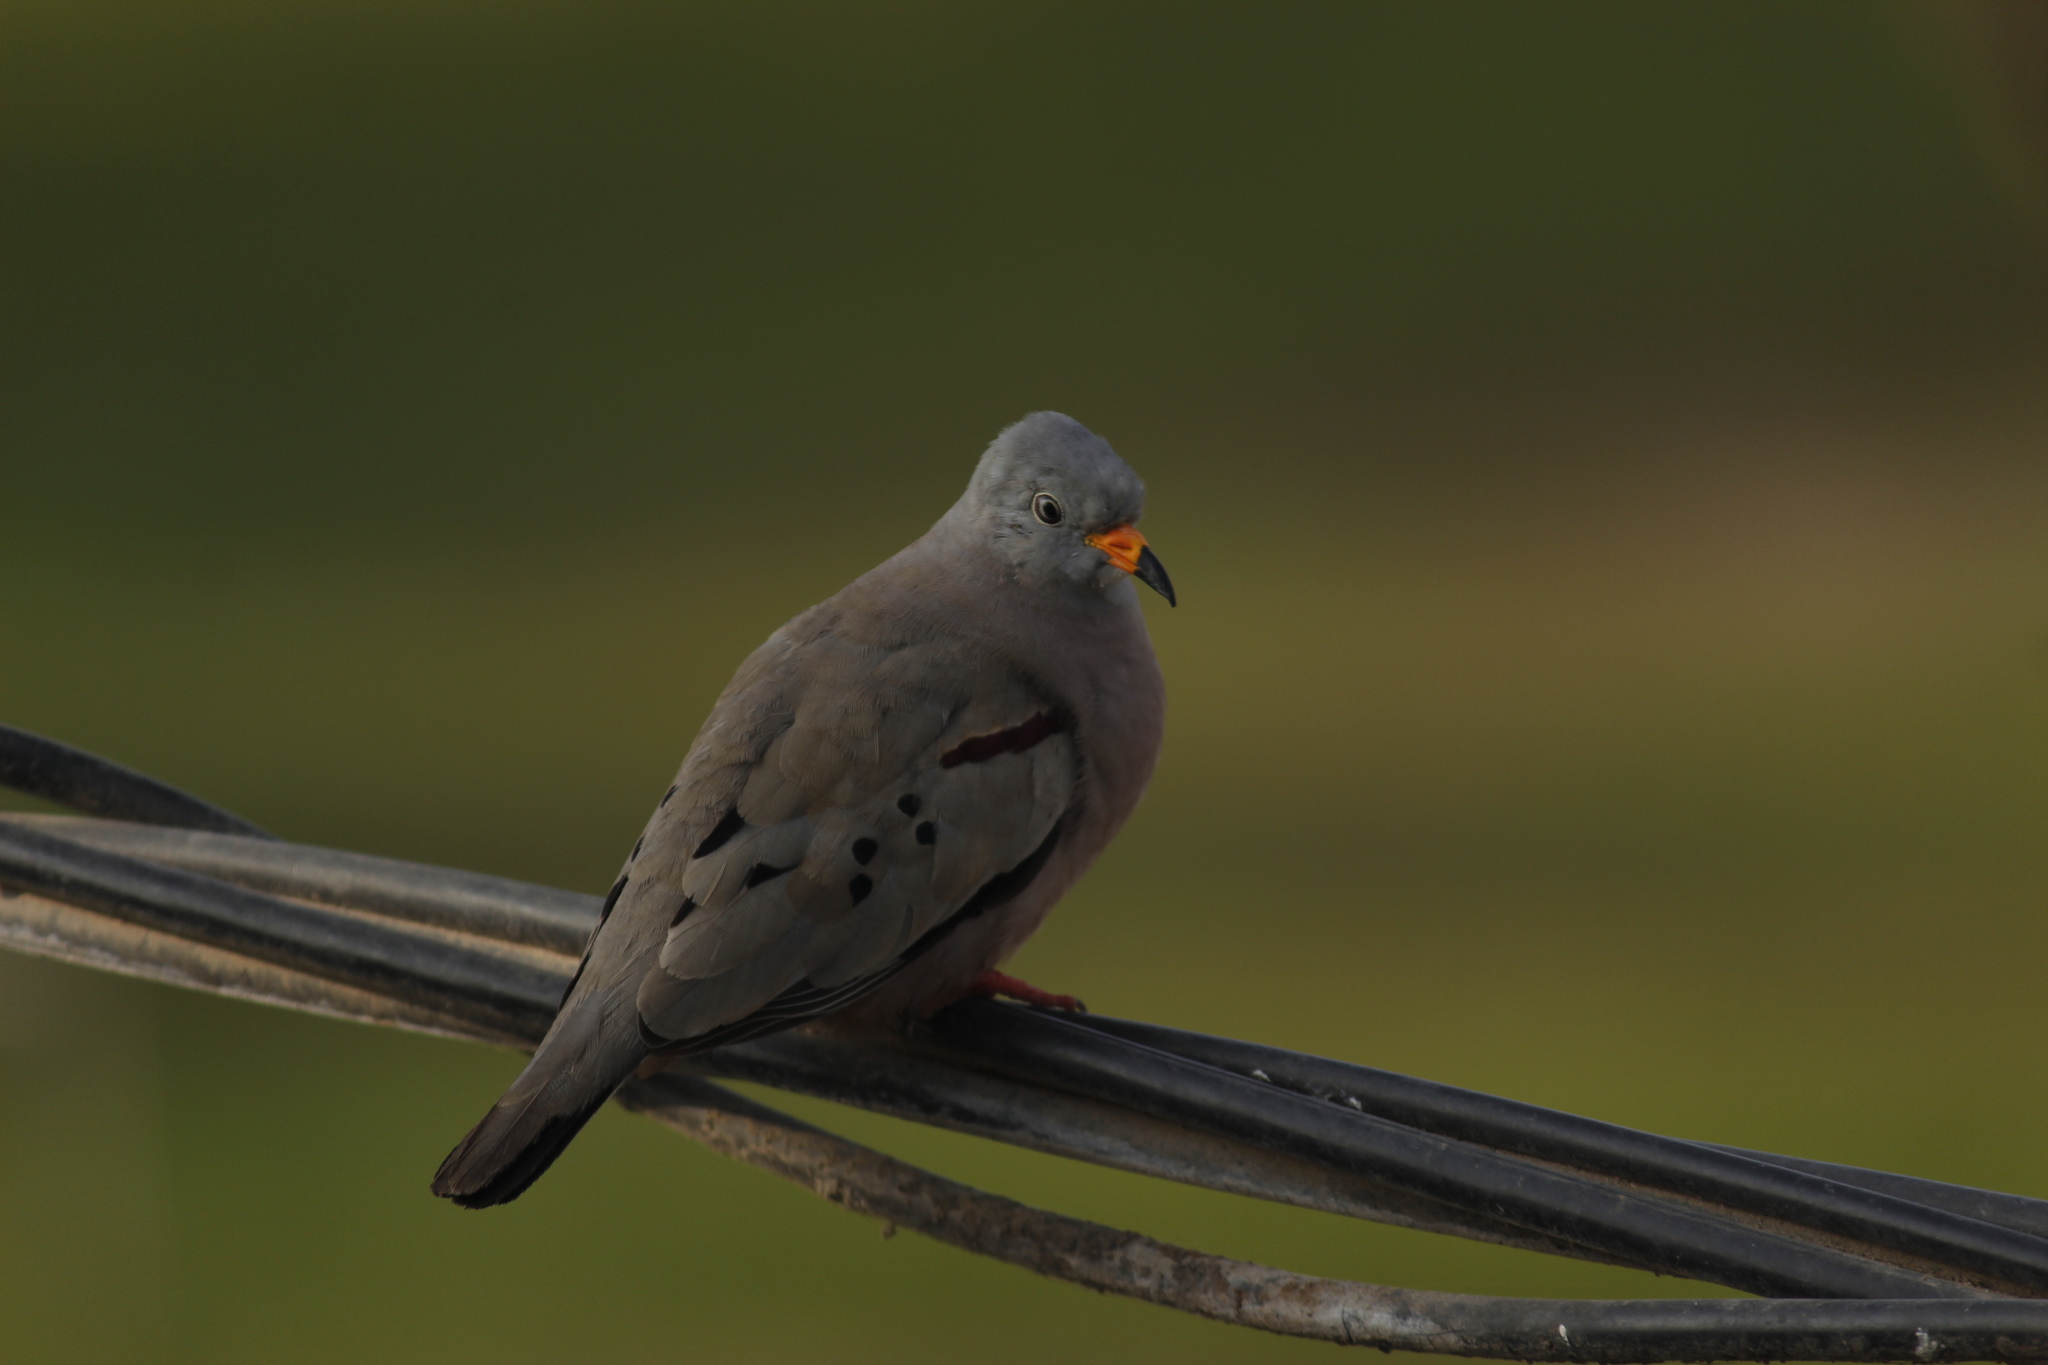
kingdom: Animalia
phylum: Chordata
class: Aves
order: Columbiformes
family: Columbidae
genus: Columbina
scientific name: Columbina cruziana
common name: Croaking ground dove
